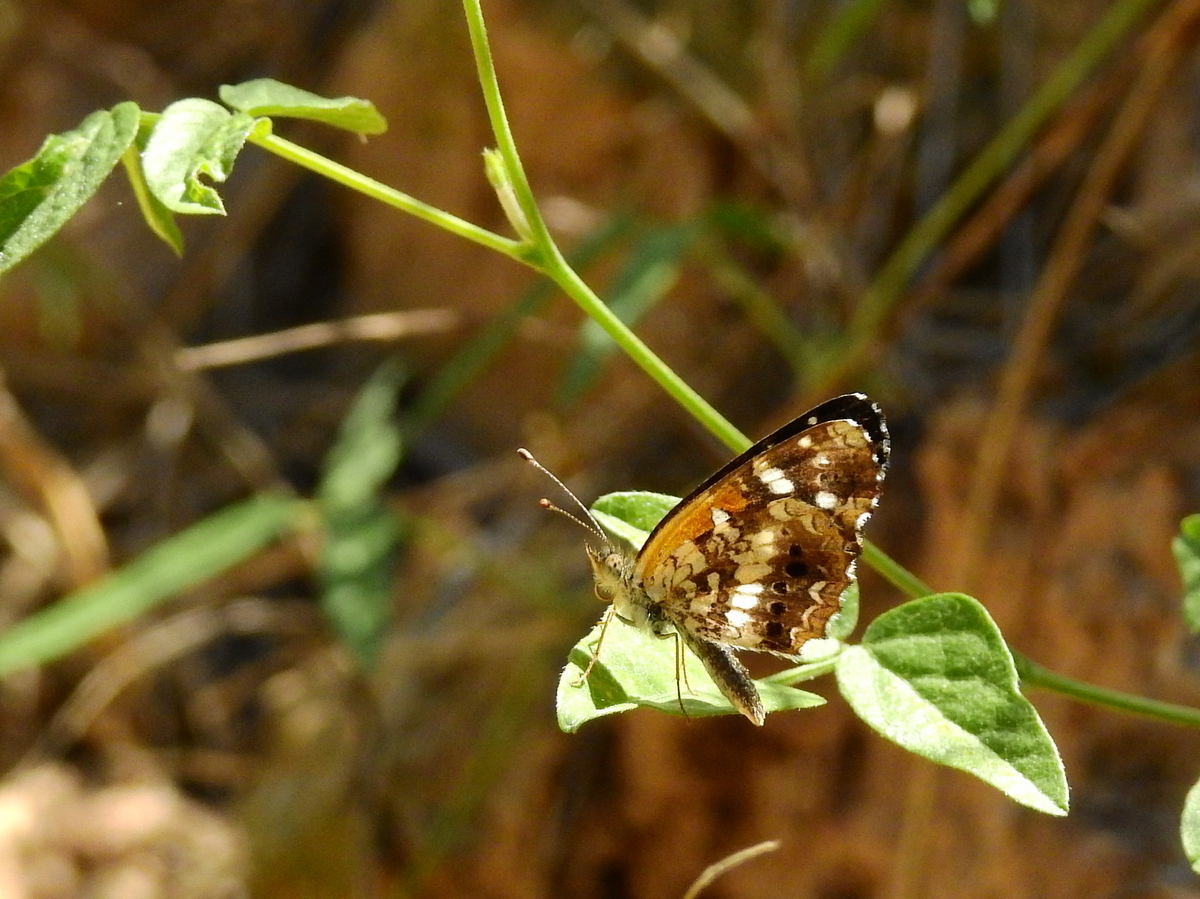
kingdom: Animalia
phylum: Arthropoda
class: Insecta
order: Lepidoptera
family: Nymphalidae
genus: Ortilia
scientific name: Ortilia ithra
